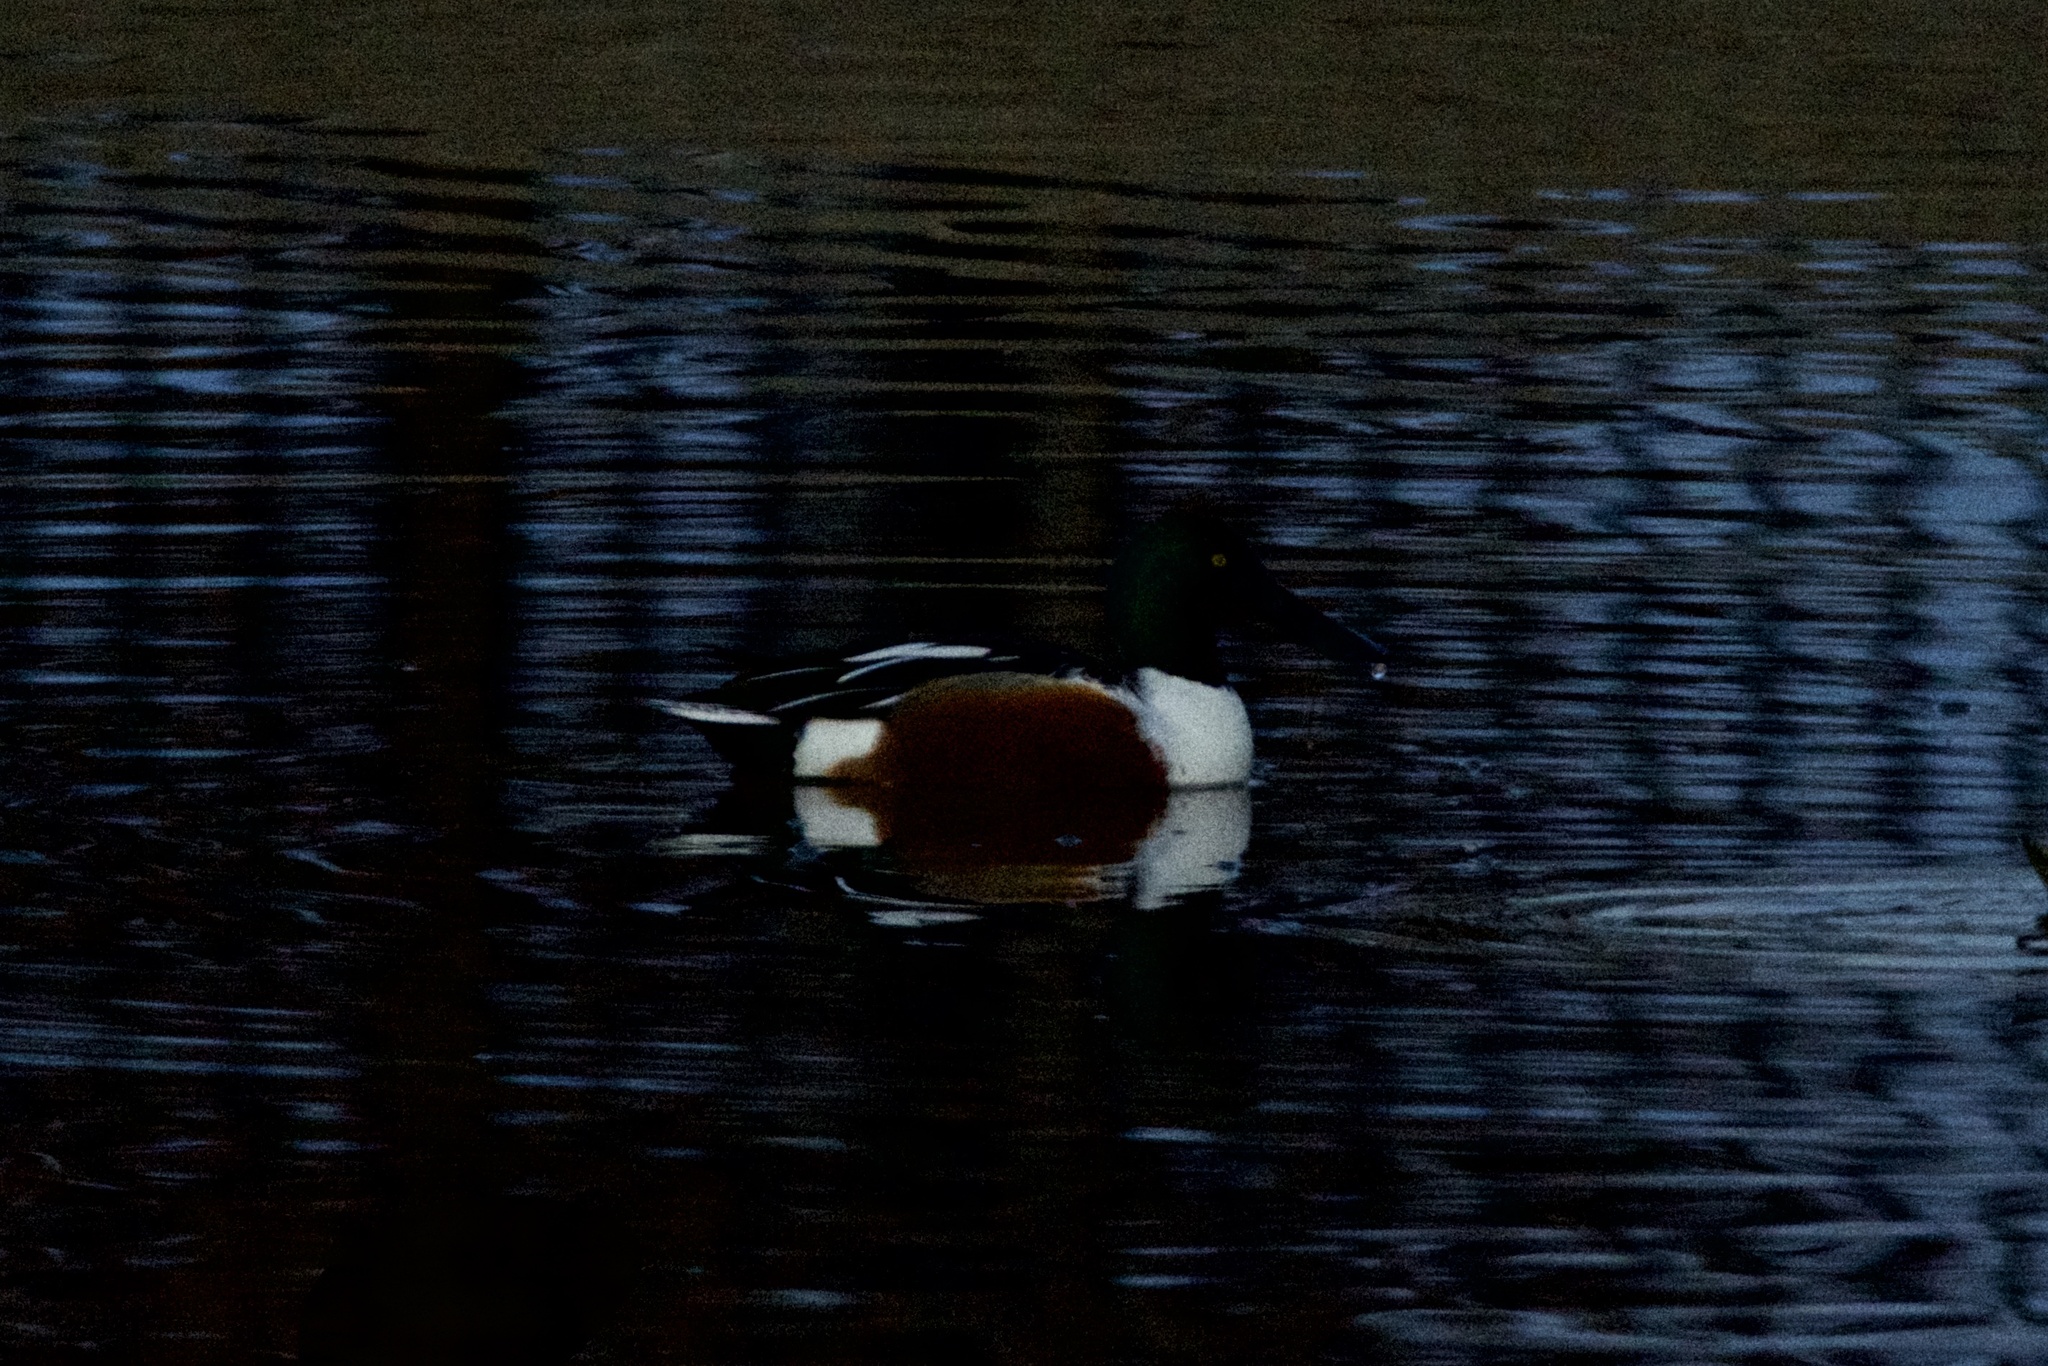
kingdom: Animalia
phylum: Chordata
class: Aves
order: Anseriformes
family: Anatidae
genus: Spatula
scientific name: Spatula clypeata
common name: Northern shoveler
